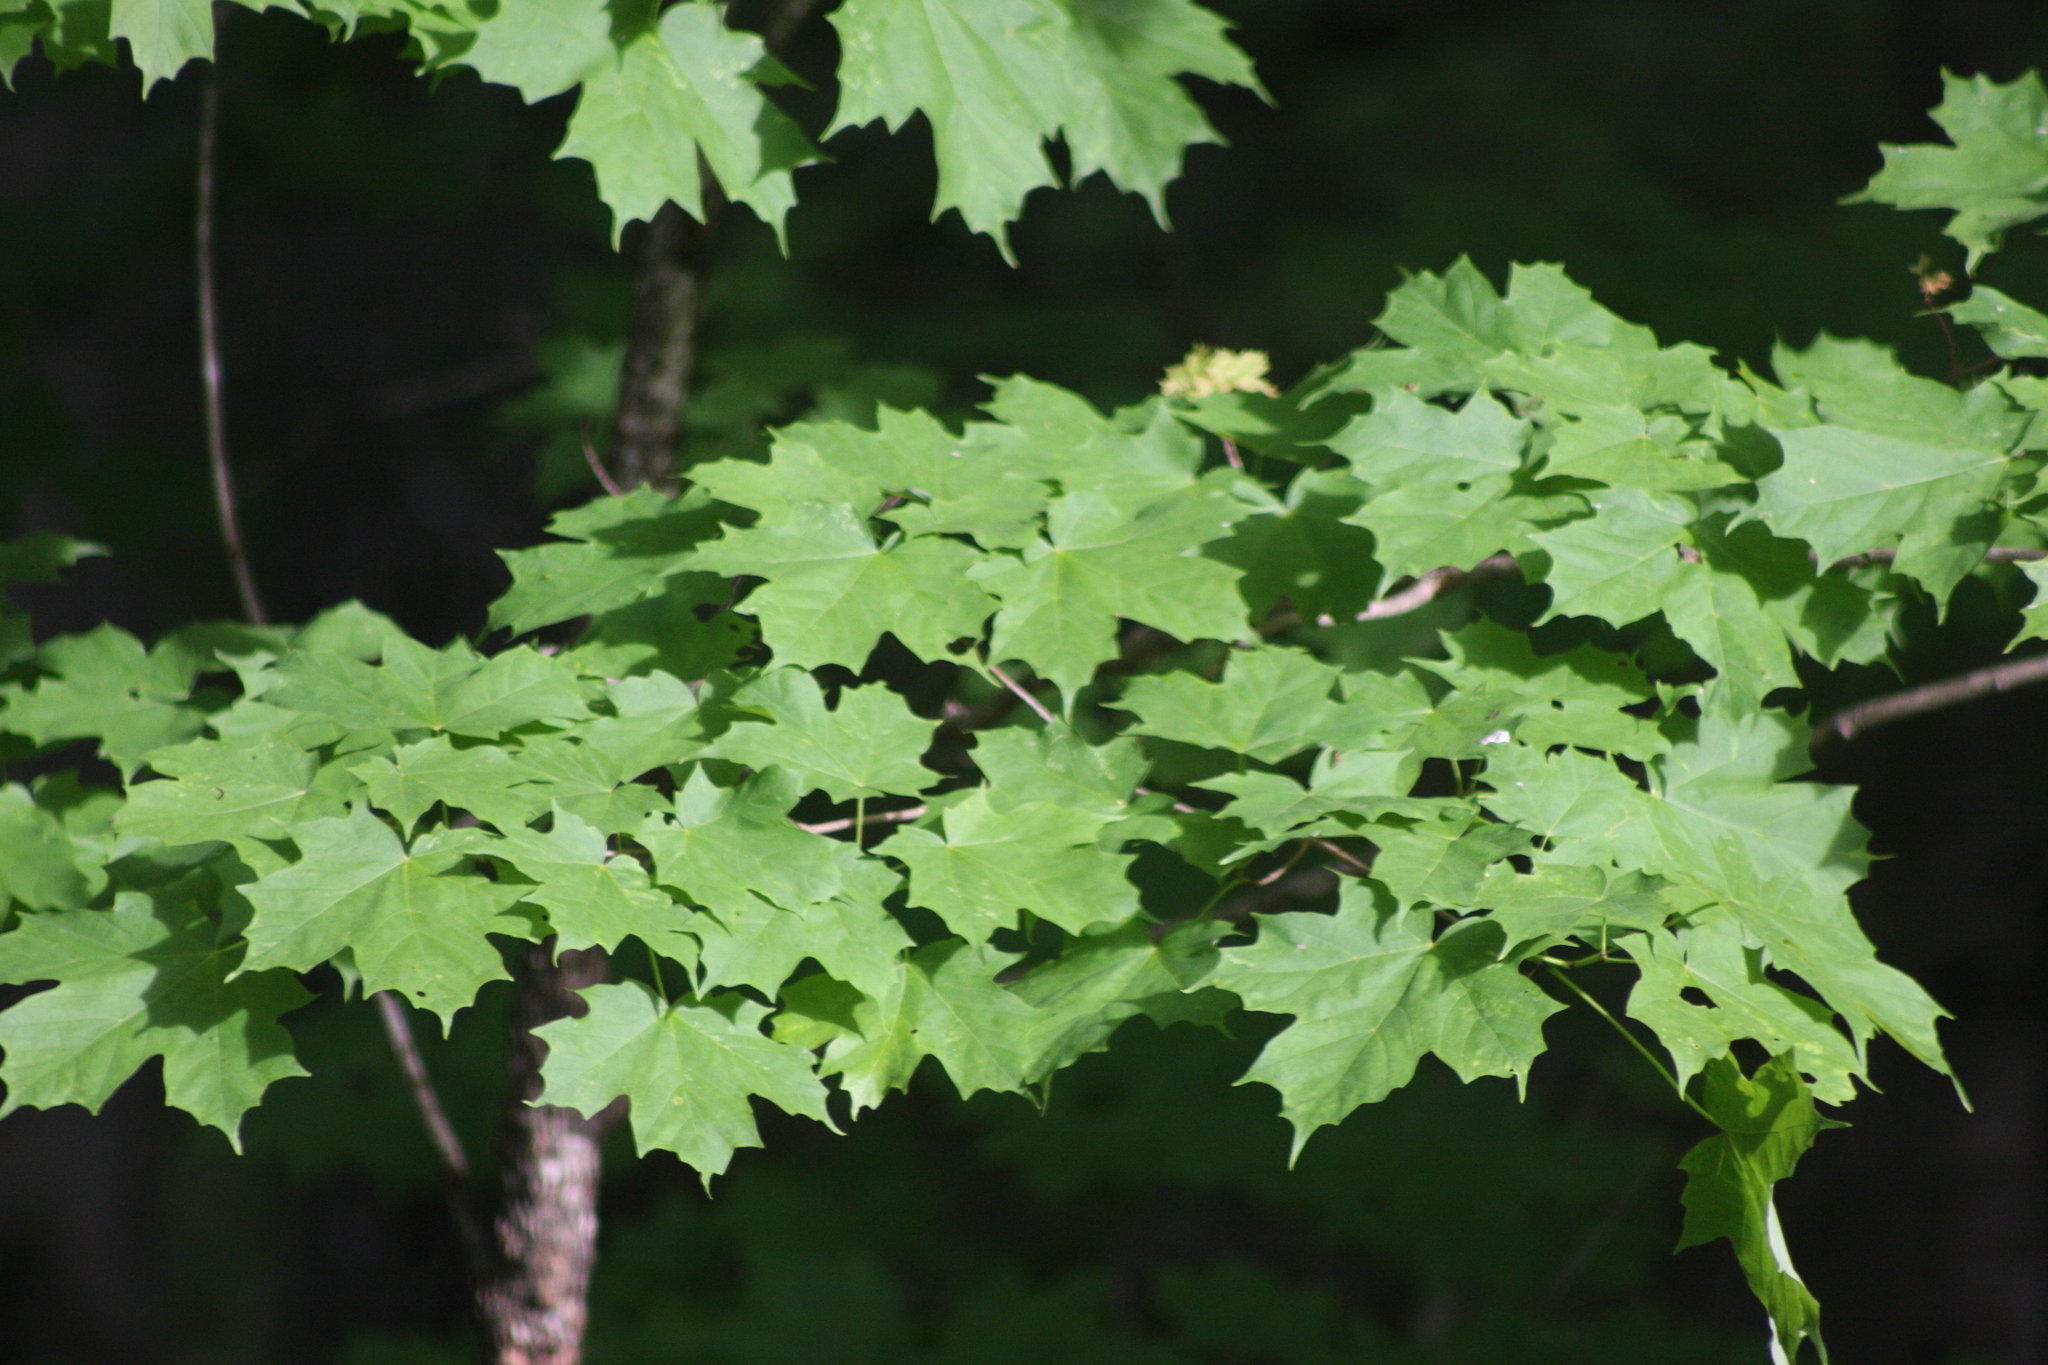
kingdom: Plantae
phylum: Tracheophyta
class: Magnoliopsida
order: Sapindales
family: Sapindaceae
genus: Acer
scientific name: Acer saccharum
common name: Sugar maple
